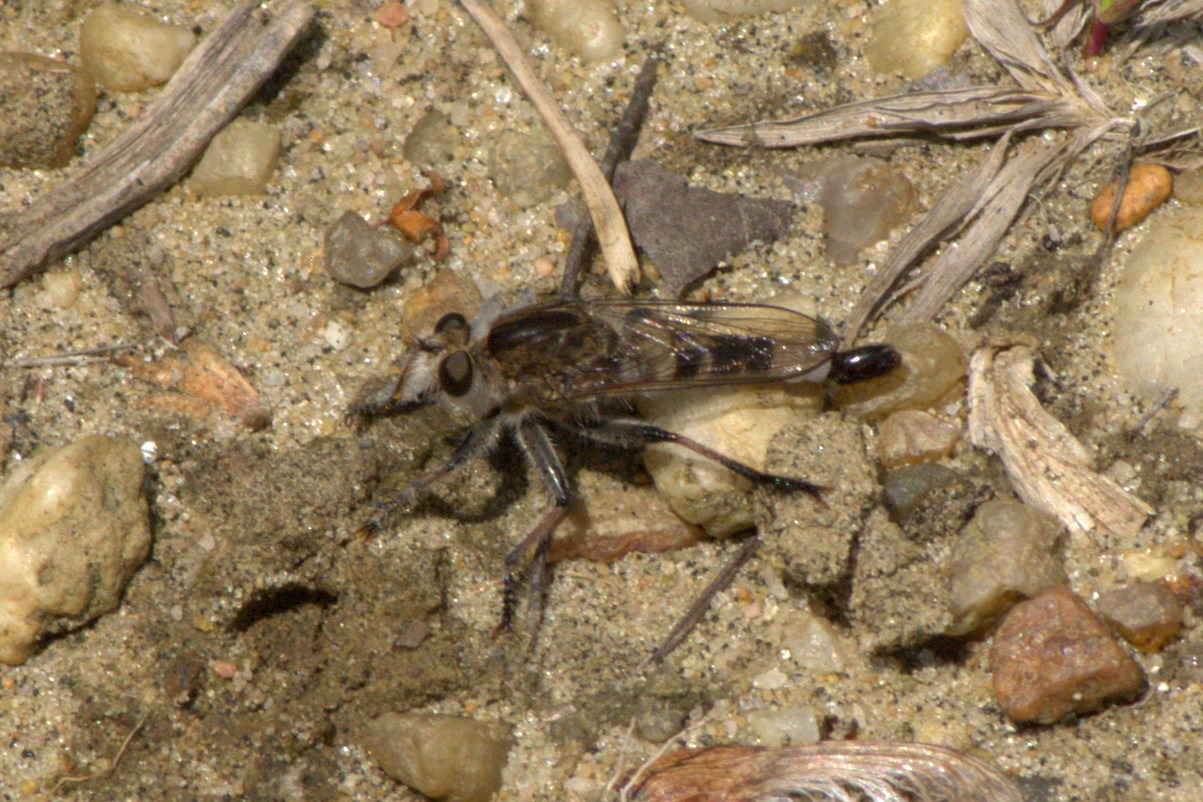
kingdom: Animalia
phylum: Arthropoda
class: Insecta
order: Diptera
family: Asilidae
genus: Efferia
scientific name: Efferia albibarbis
